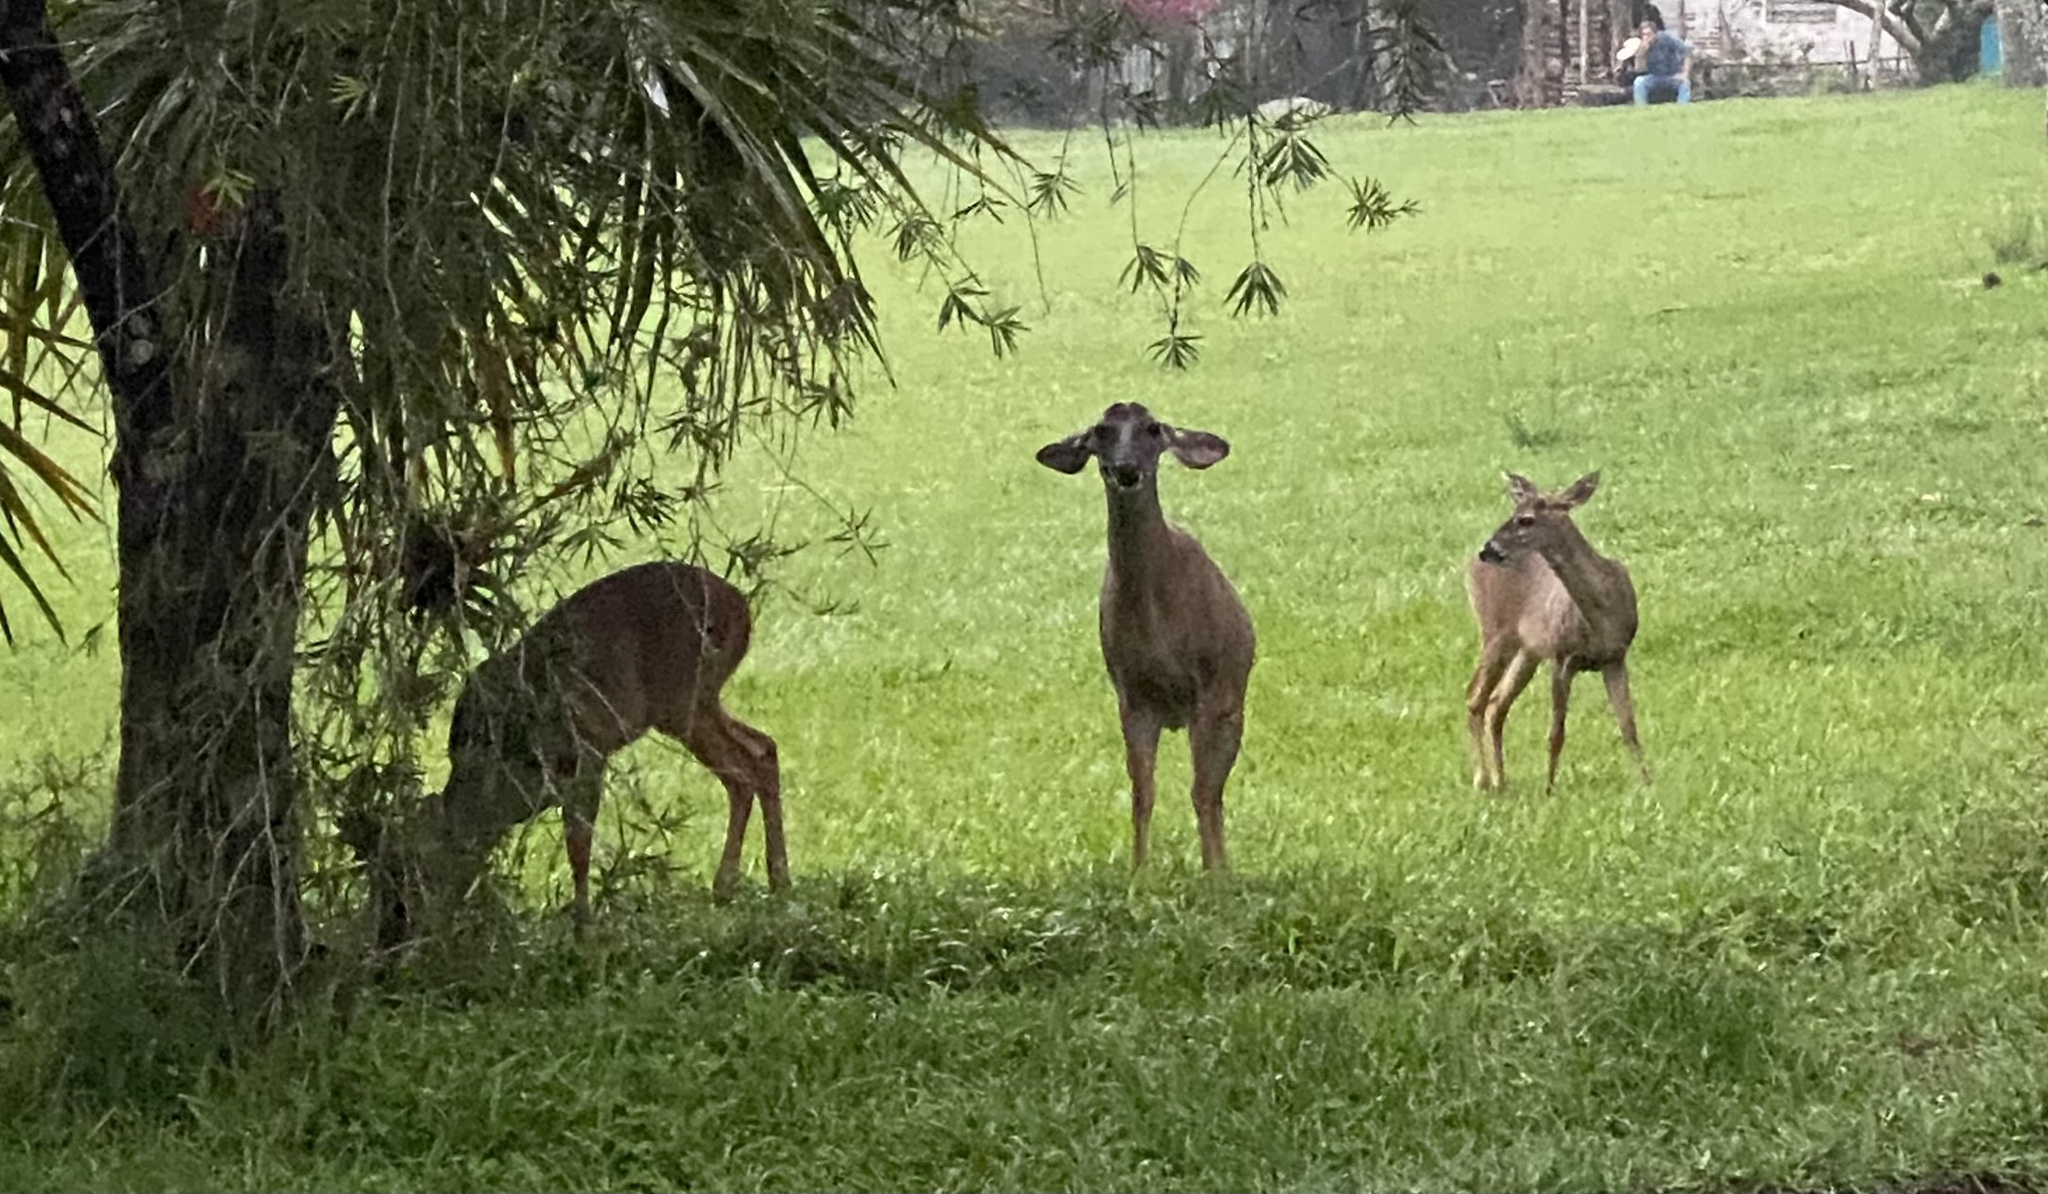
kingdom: Animalia
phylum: Chordata
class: Mammalia
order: Artiodactyla
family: Cervidae
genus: Odocoileus
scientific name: Odocoileus virginianus
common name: White-tailed deer
